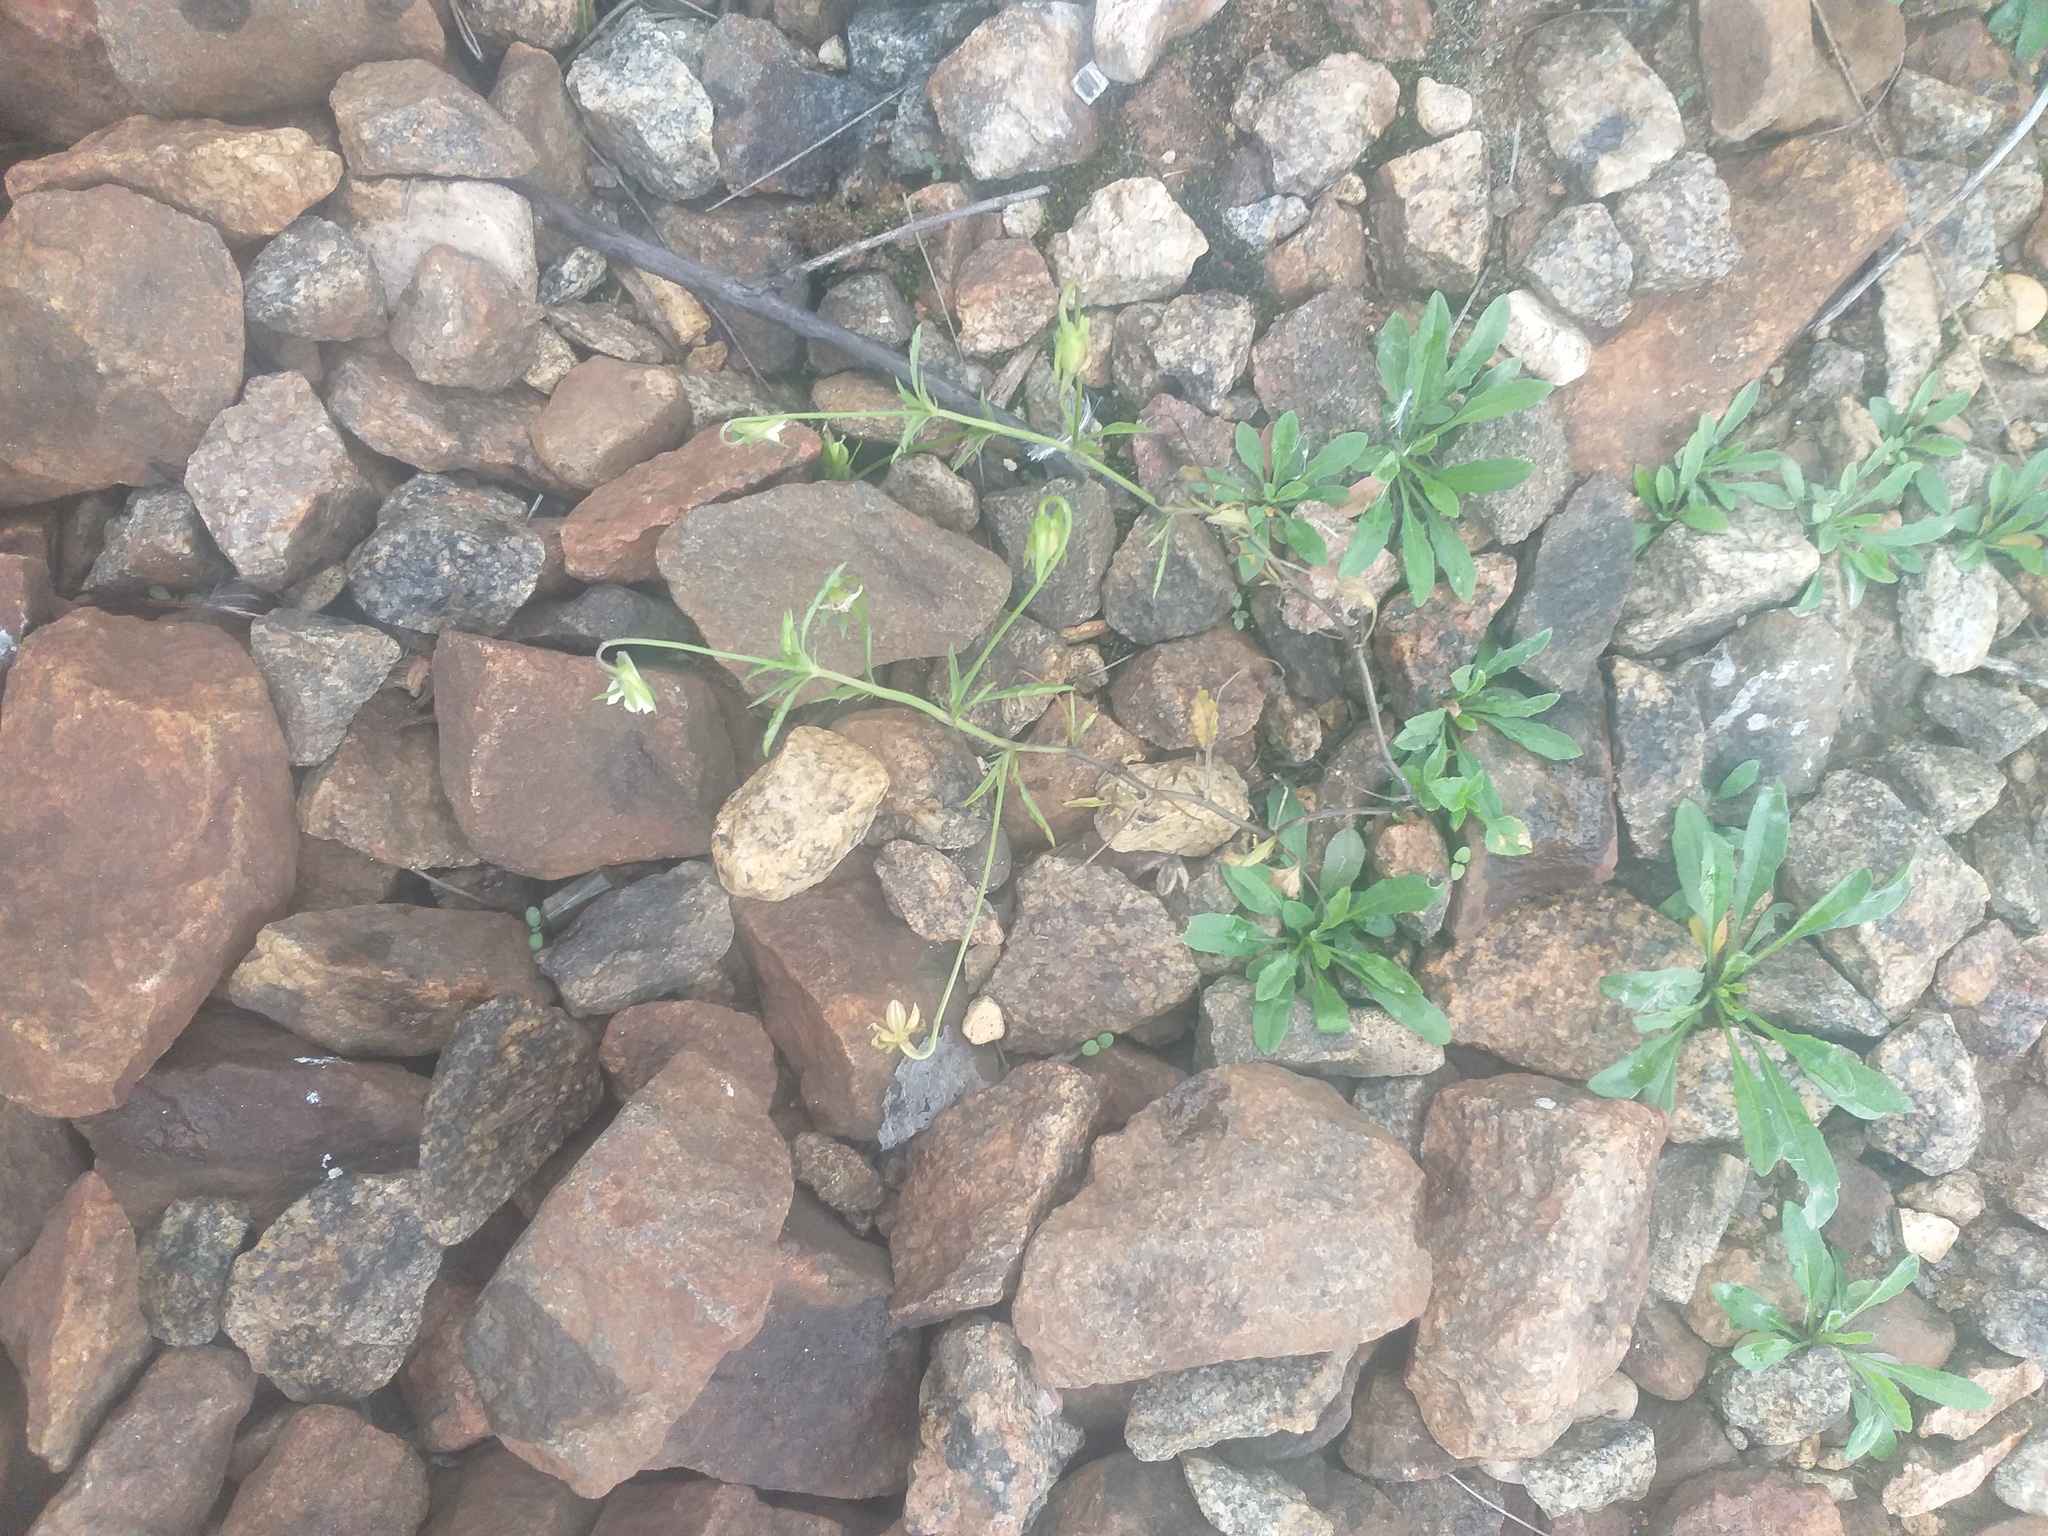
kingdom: Plantae
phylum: Tracheophyta
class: Magnoliopsida
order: Malpighiales
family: Violaceae
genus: Viola
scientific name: Viola arvensis
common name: Field pansy
